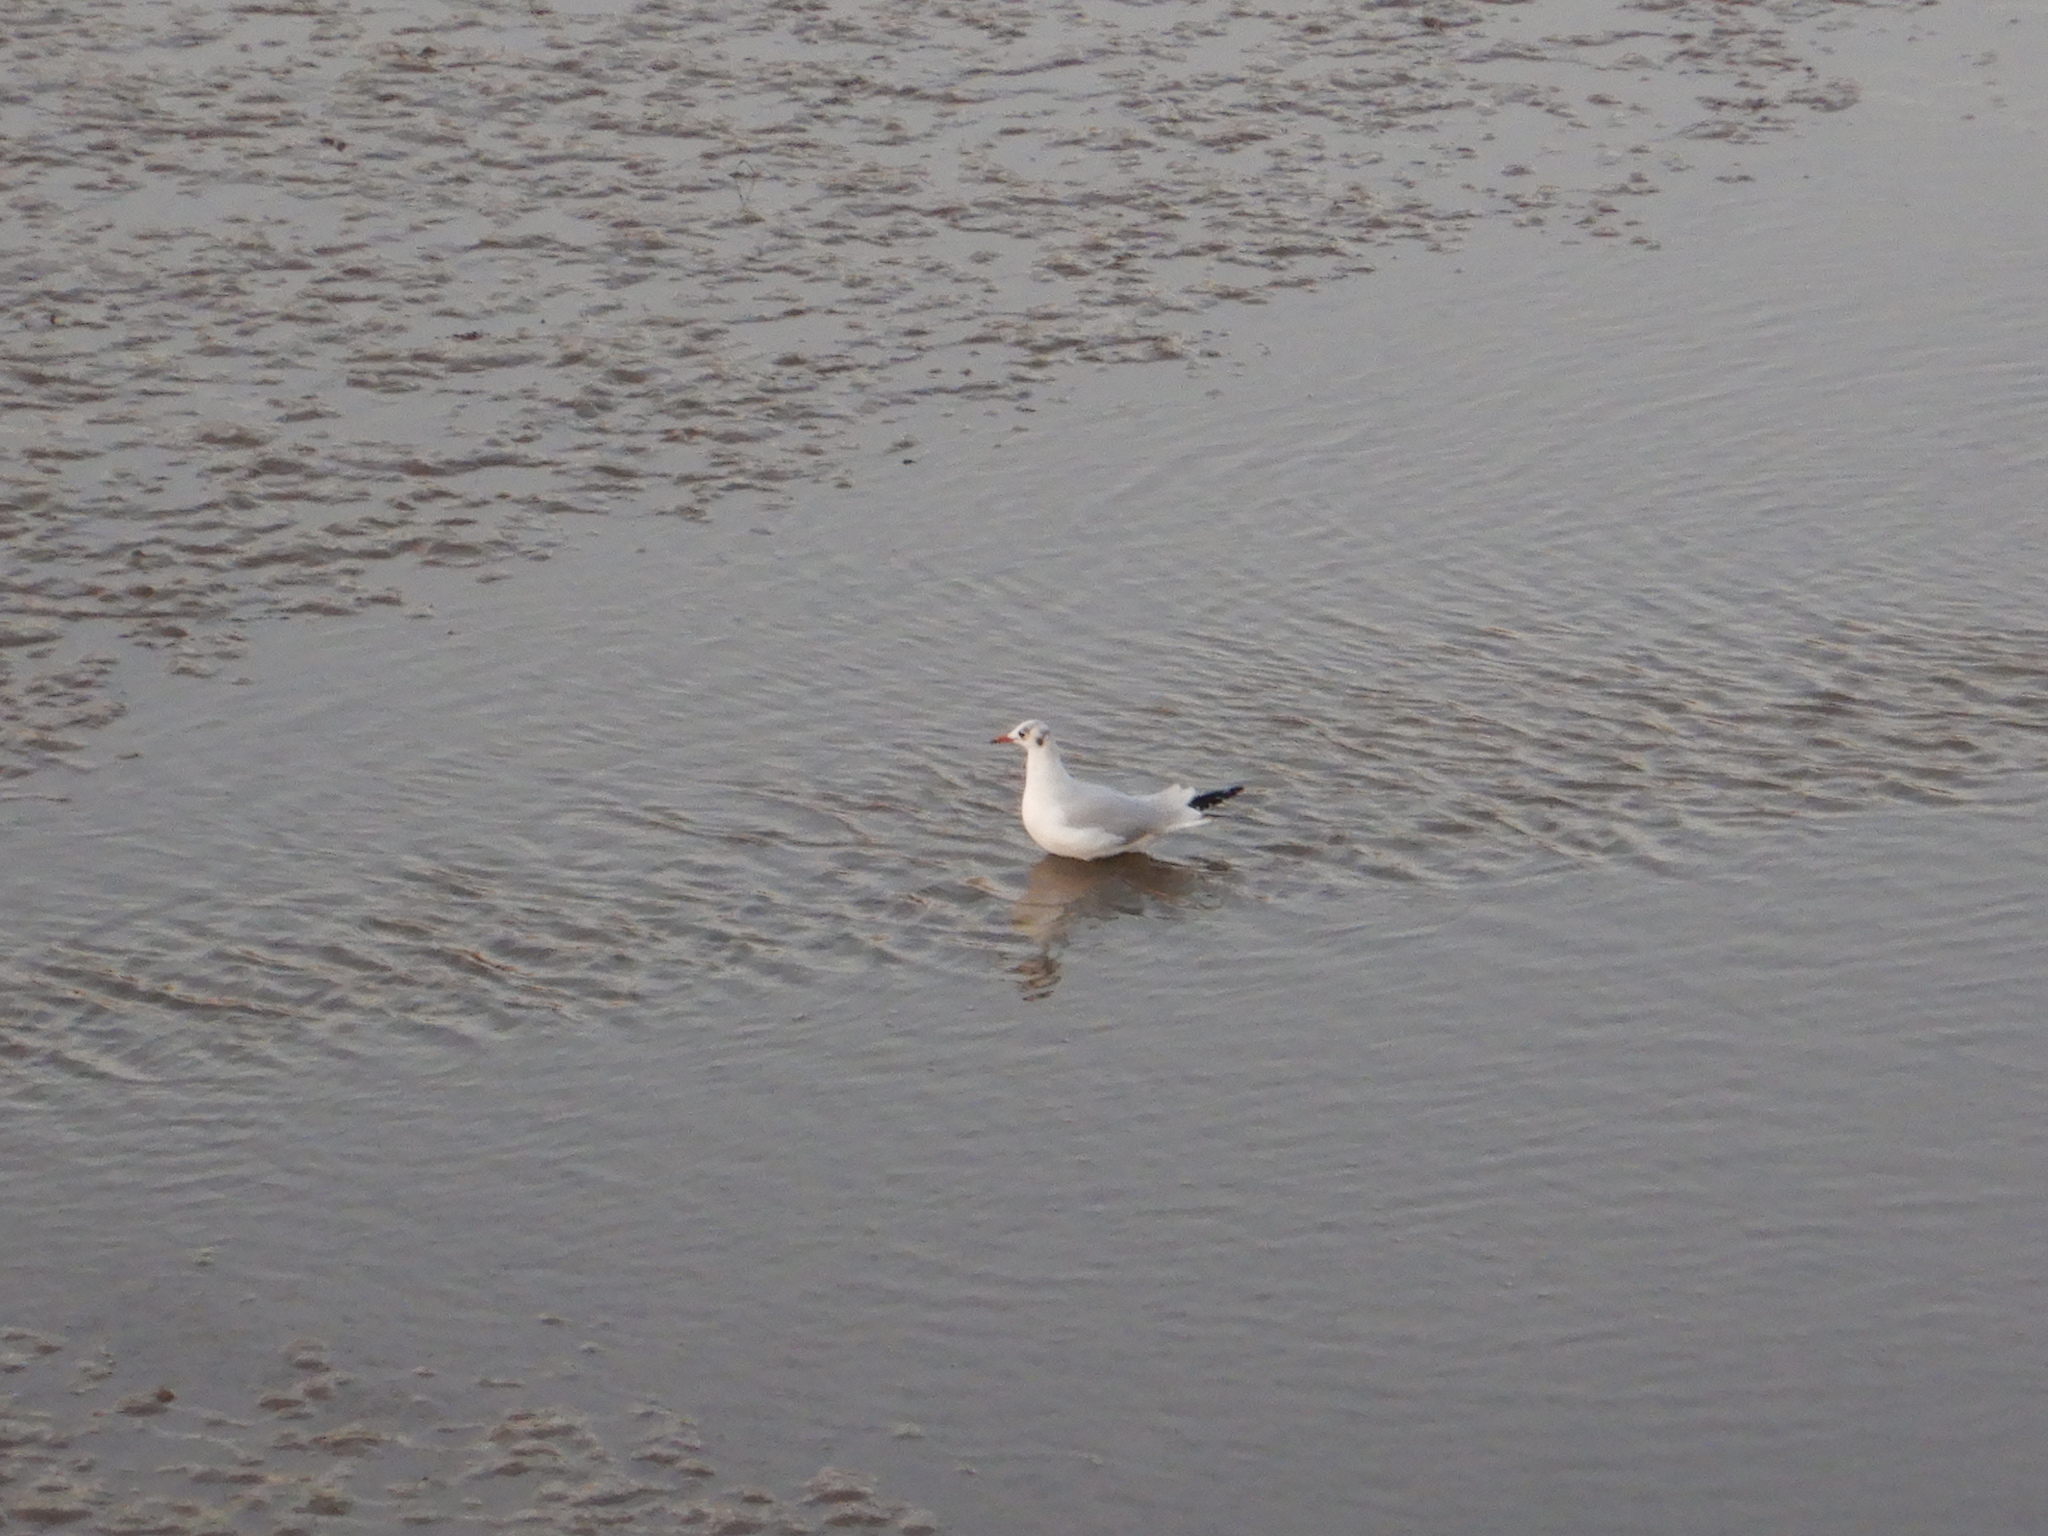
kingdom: Animalia
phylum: Chordata
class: Aves
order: Charadriiformes
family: Laridae
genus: Chroicocephalus
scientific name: Chroicocephalus ridibundus
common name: Black-headed gull
